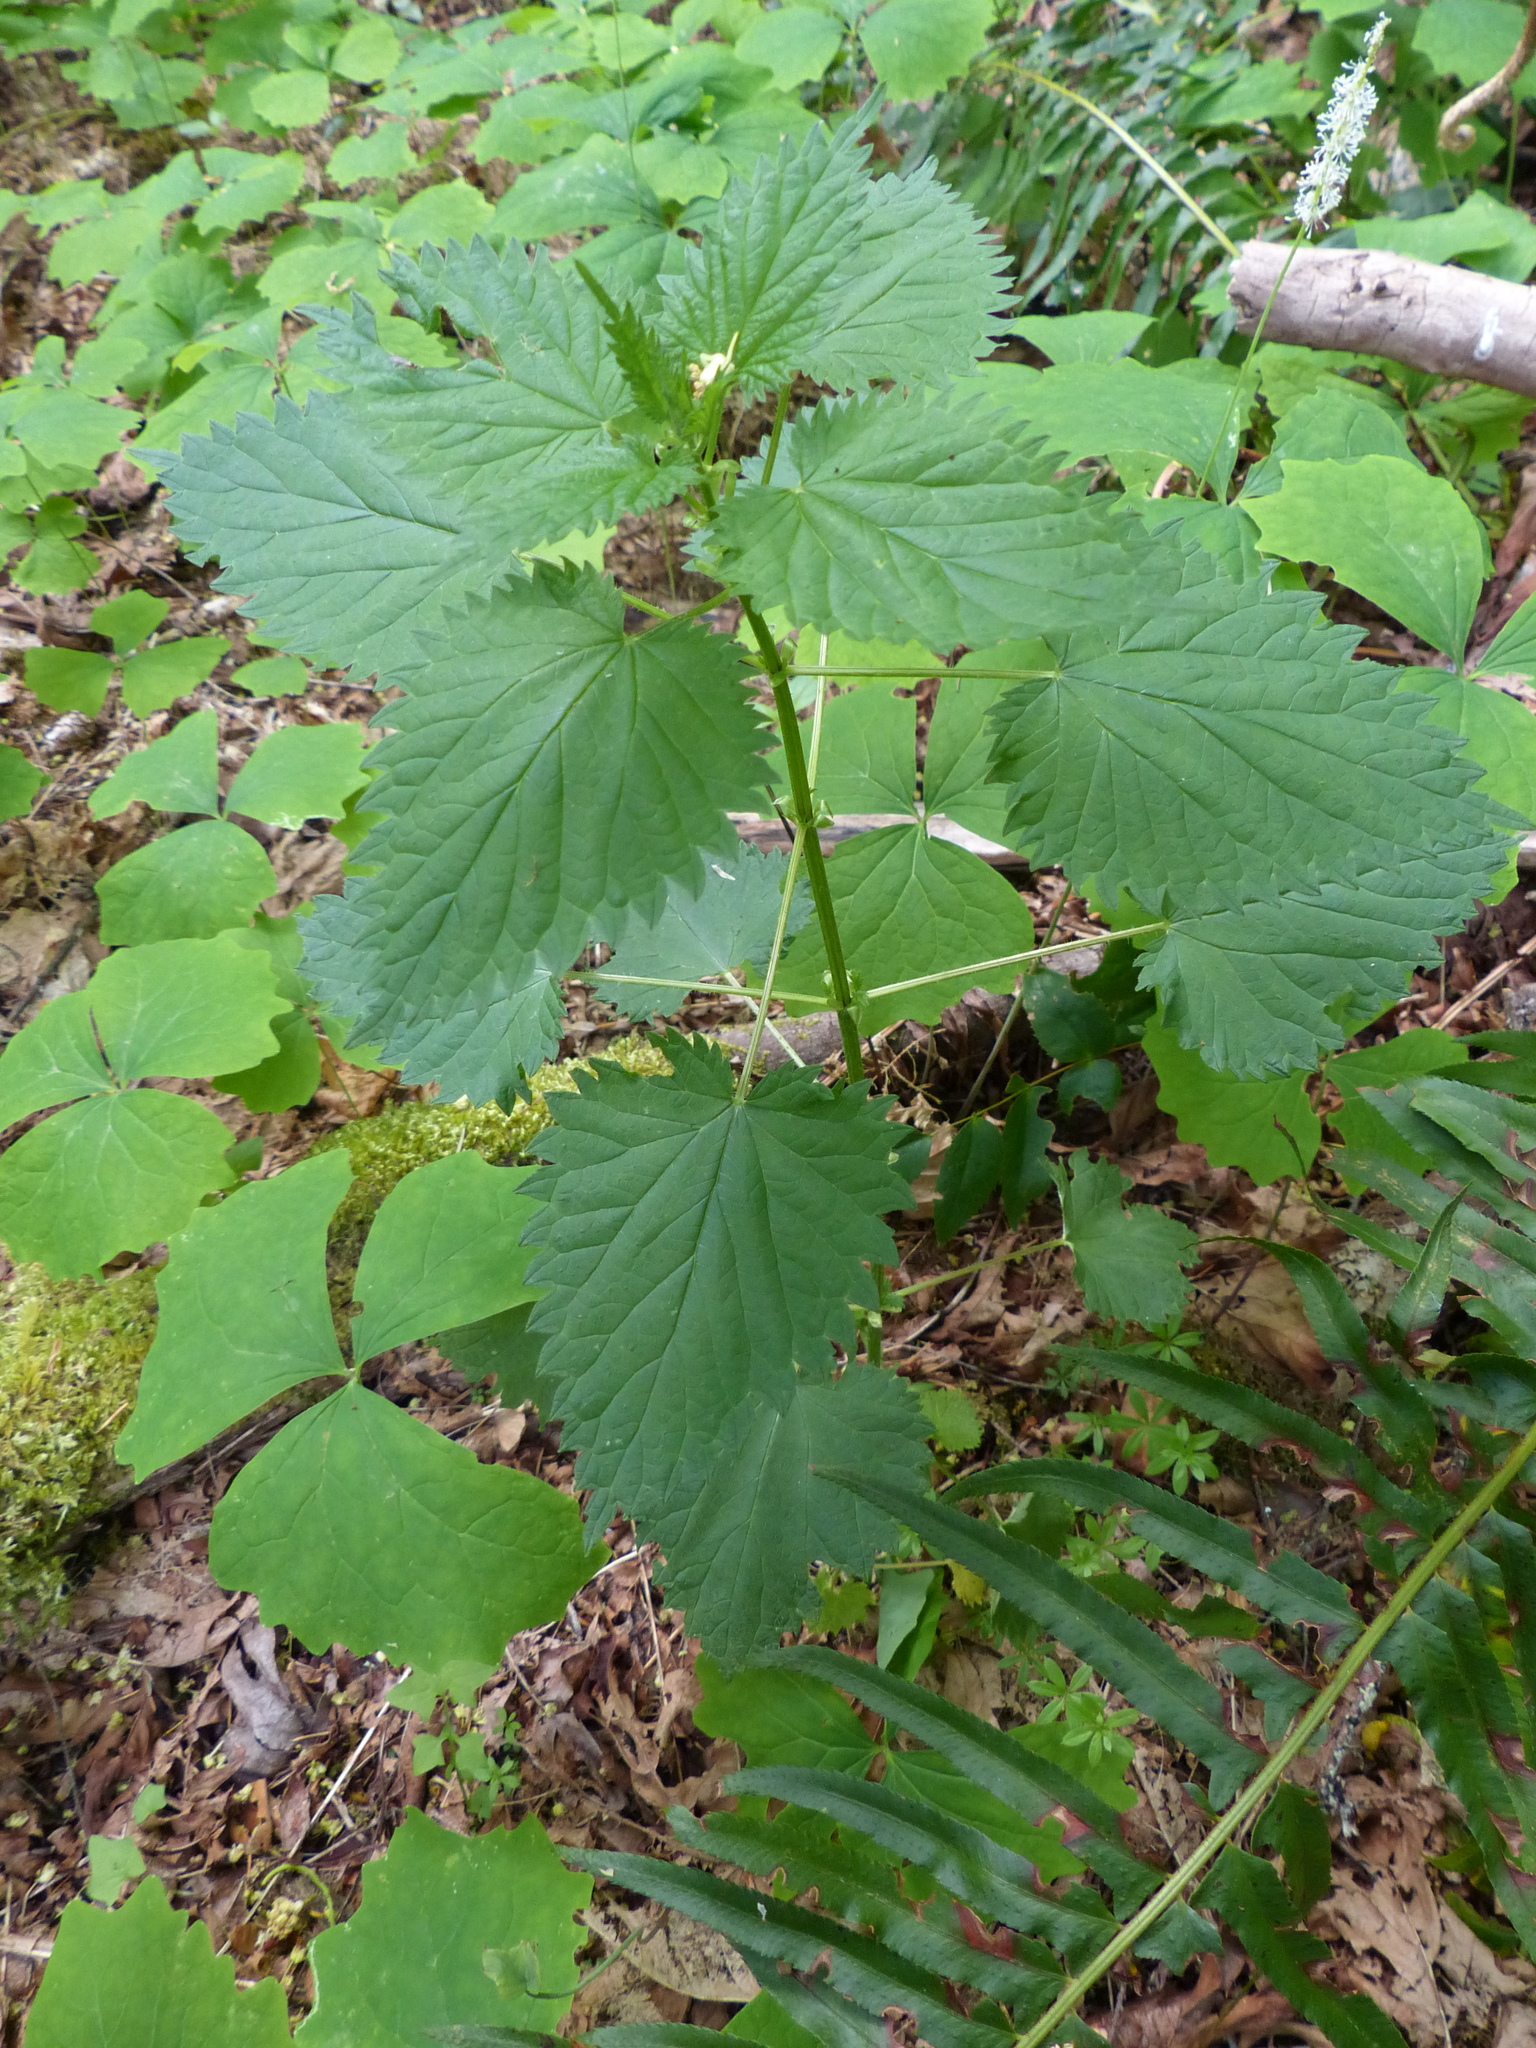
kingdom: Plantae
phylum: Tracheophyta
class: Magnoliopsida
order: Rosales
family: Urticaceae
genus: Urtica
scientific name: Urtica dioica
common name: Common nettle
